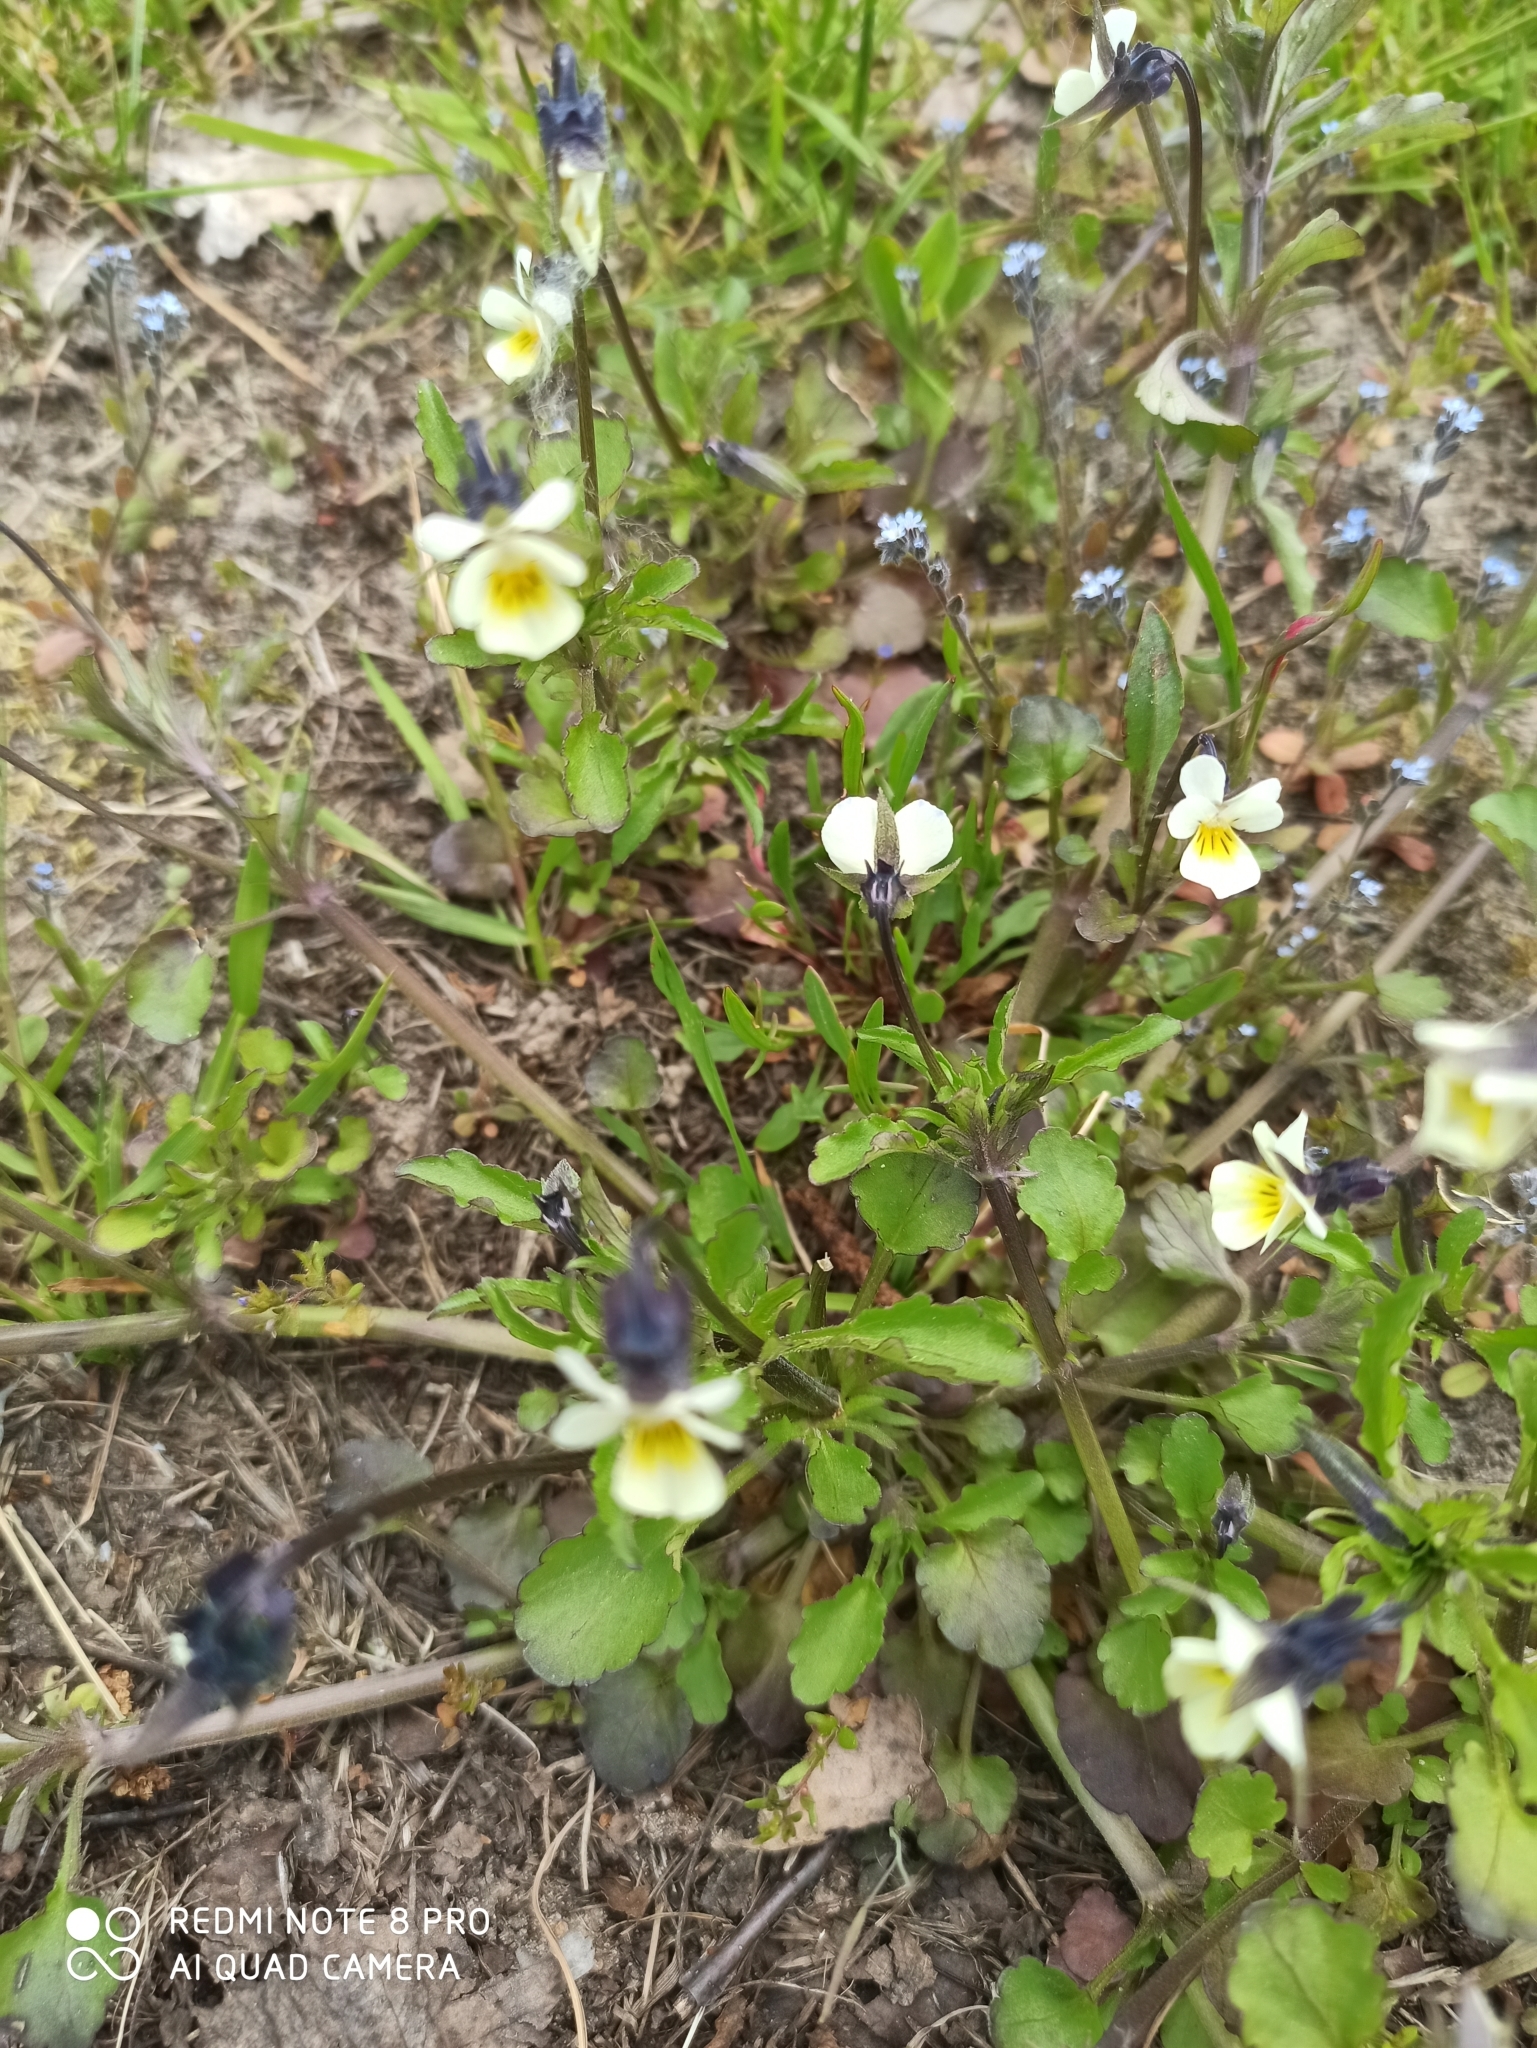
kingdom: Plantae
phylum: Tracheophyta
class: Magnoliopsida
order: Malpighiales
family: Violaceae
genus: Viola
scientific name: Viola arvensis
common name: Field pansy
